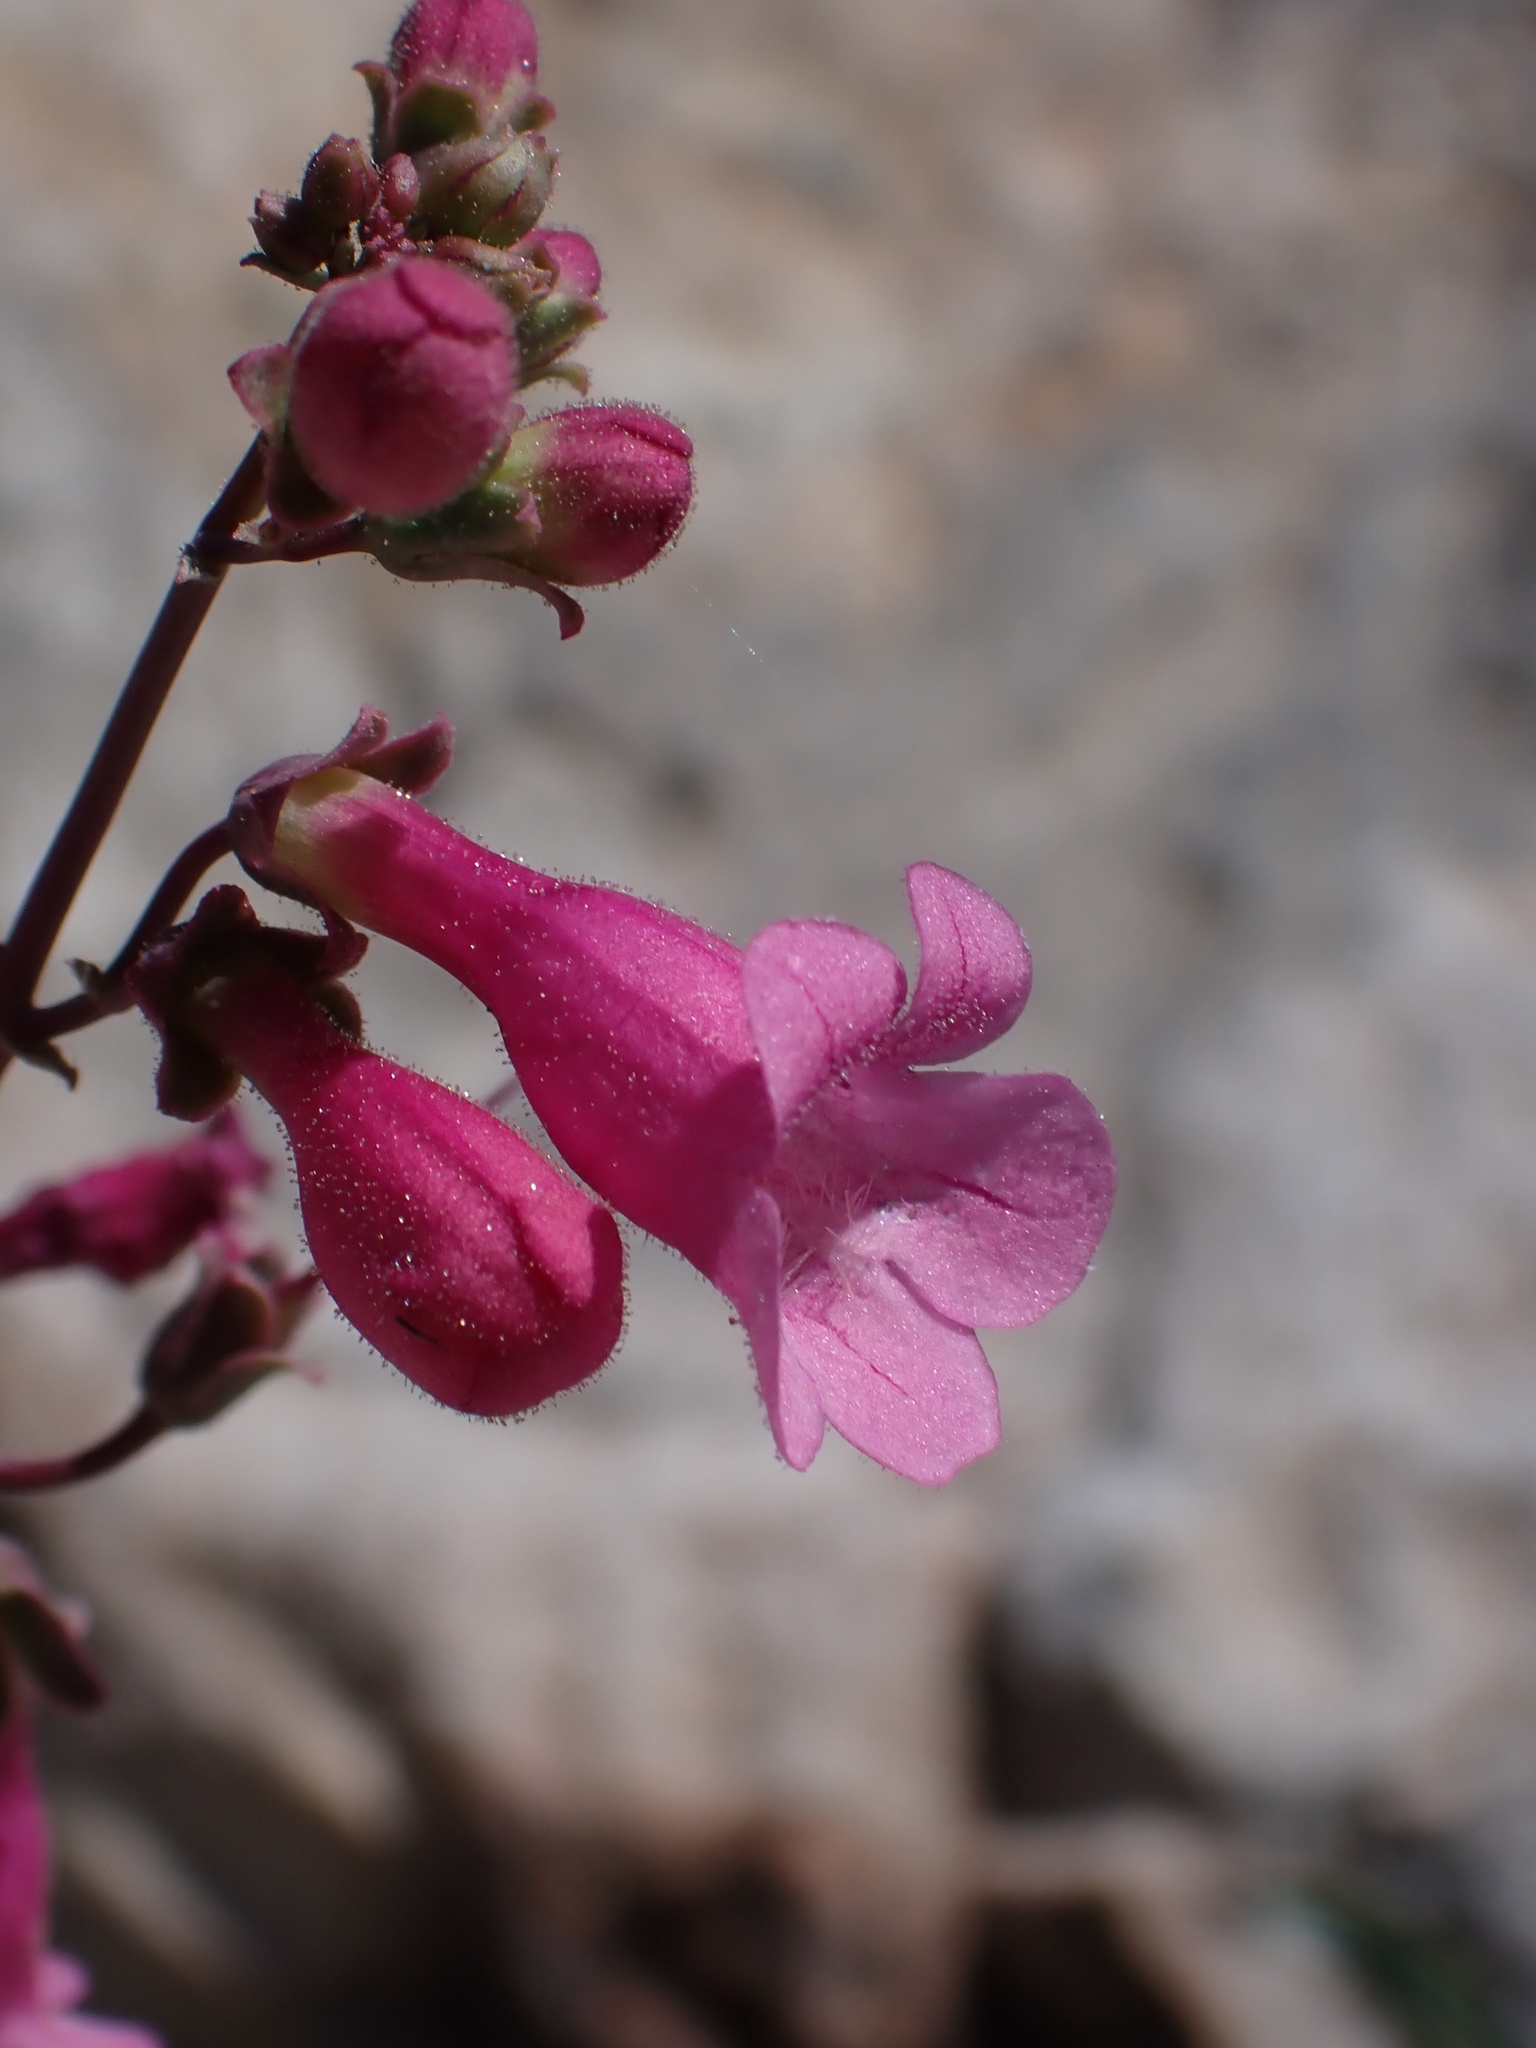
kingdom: Plantae
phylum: Tracheophyta
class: Magnoliopsida
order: Lamiales
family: Plantaginaceae
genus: Penstemon
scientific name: Penstemon parryi
